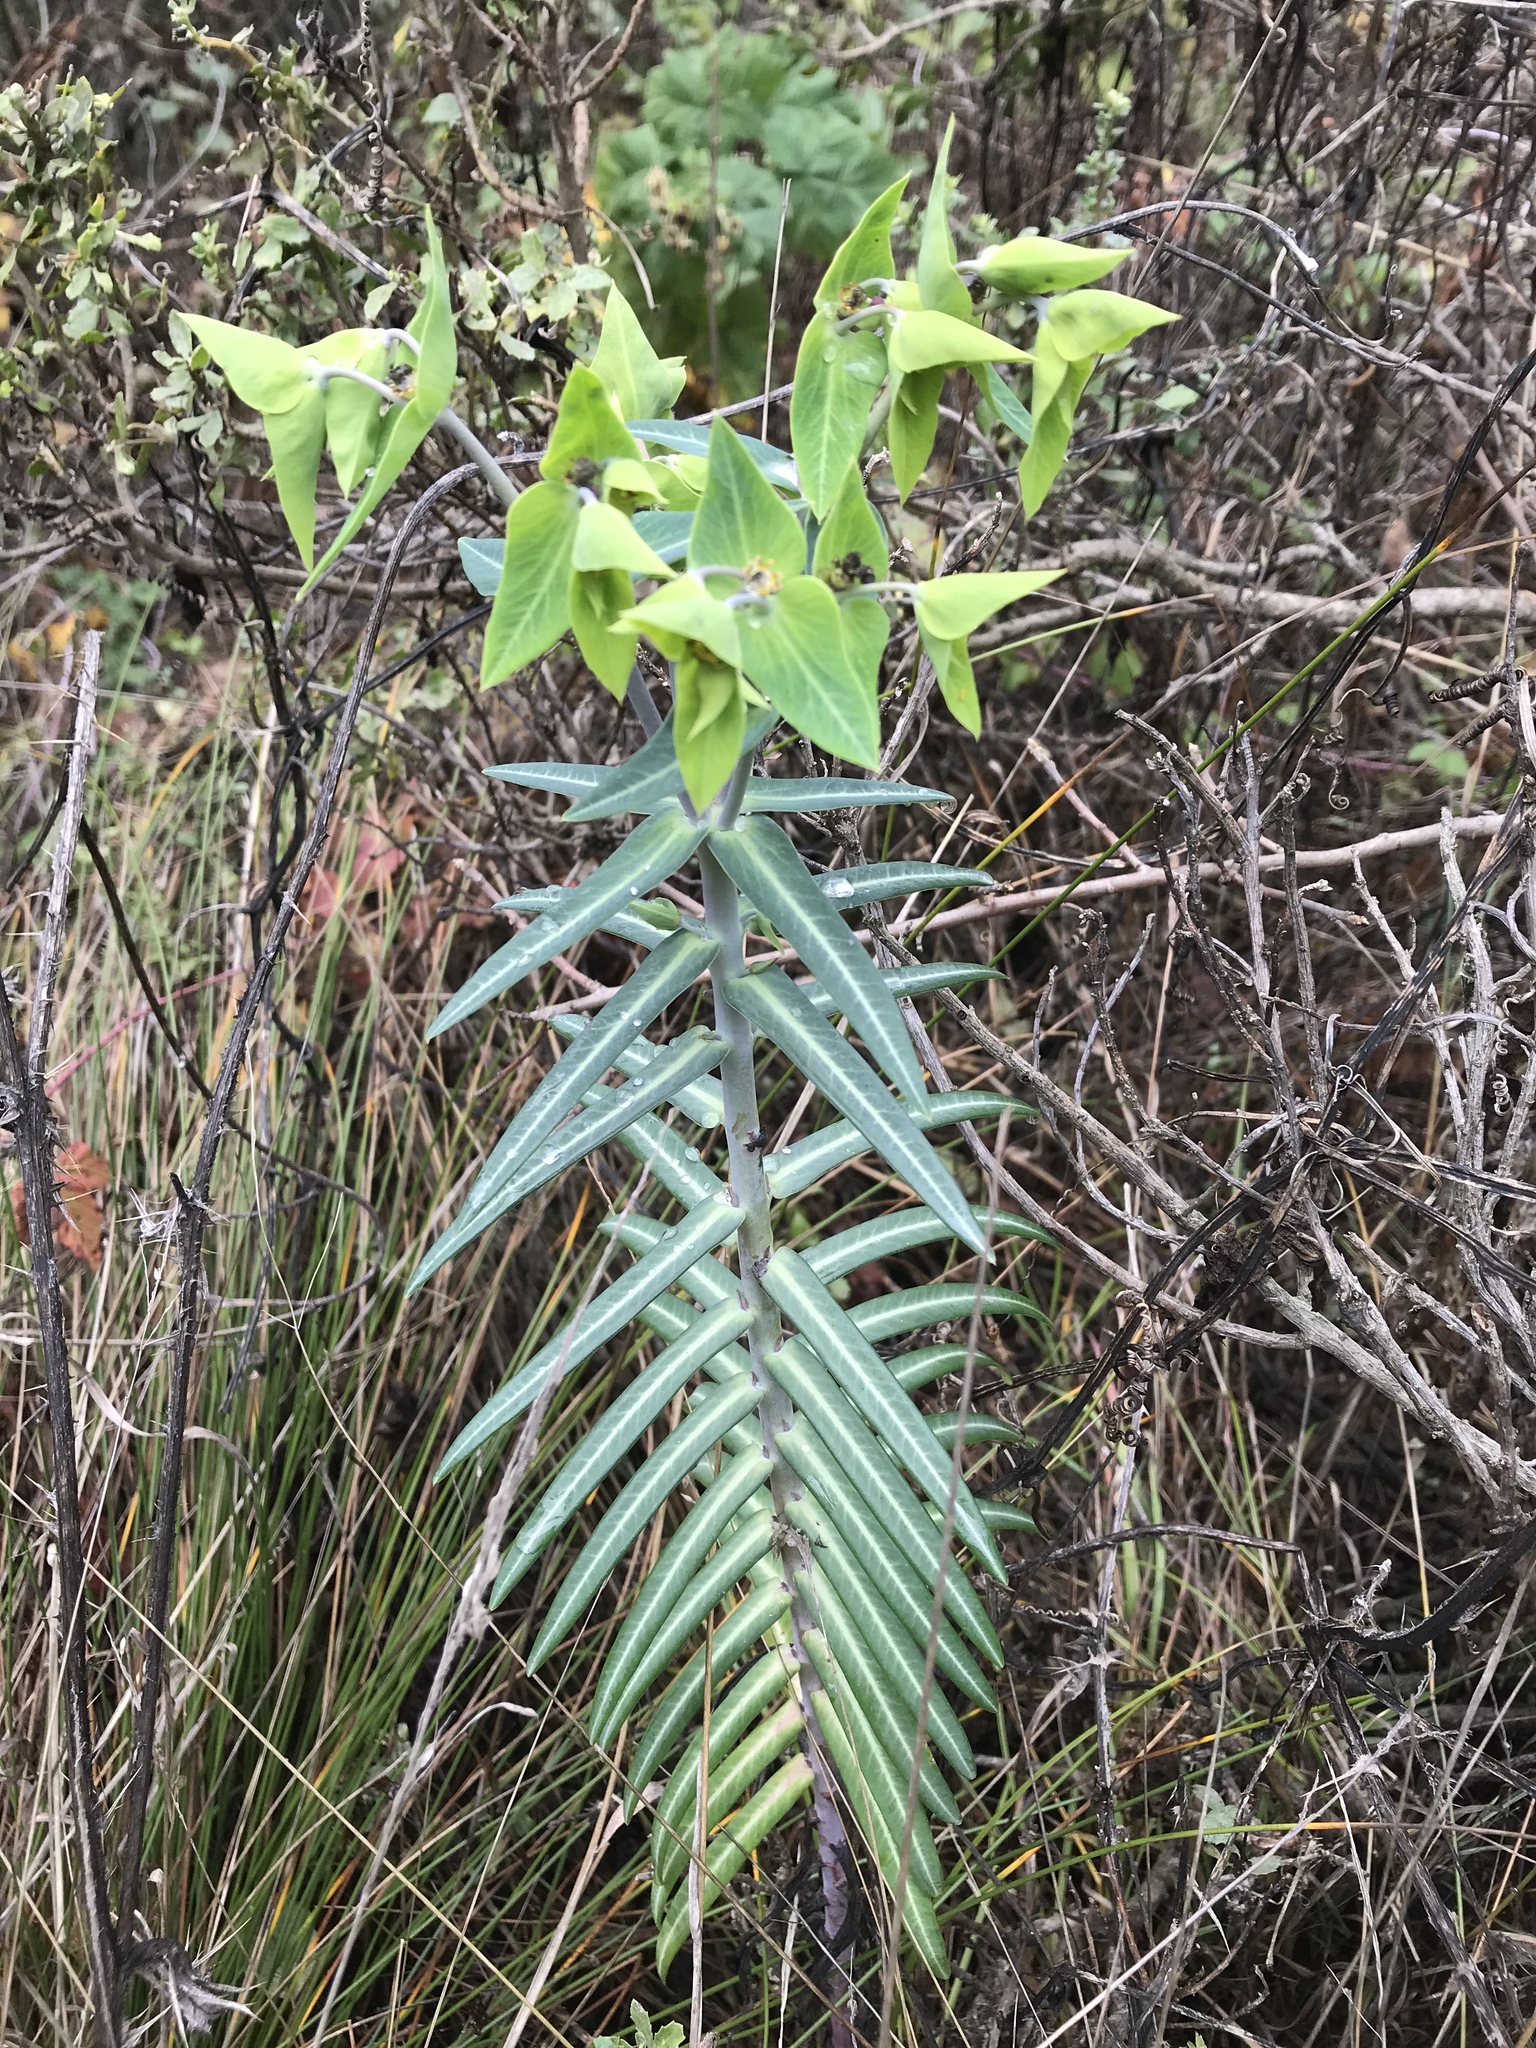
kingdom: Plantae
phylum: Tracheophyta
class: Magnoliopsida
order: Malpighiales
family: Euphorbiaceae
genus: Euphorbia
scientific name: Euphorbia lathyris
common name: Caper spurge
